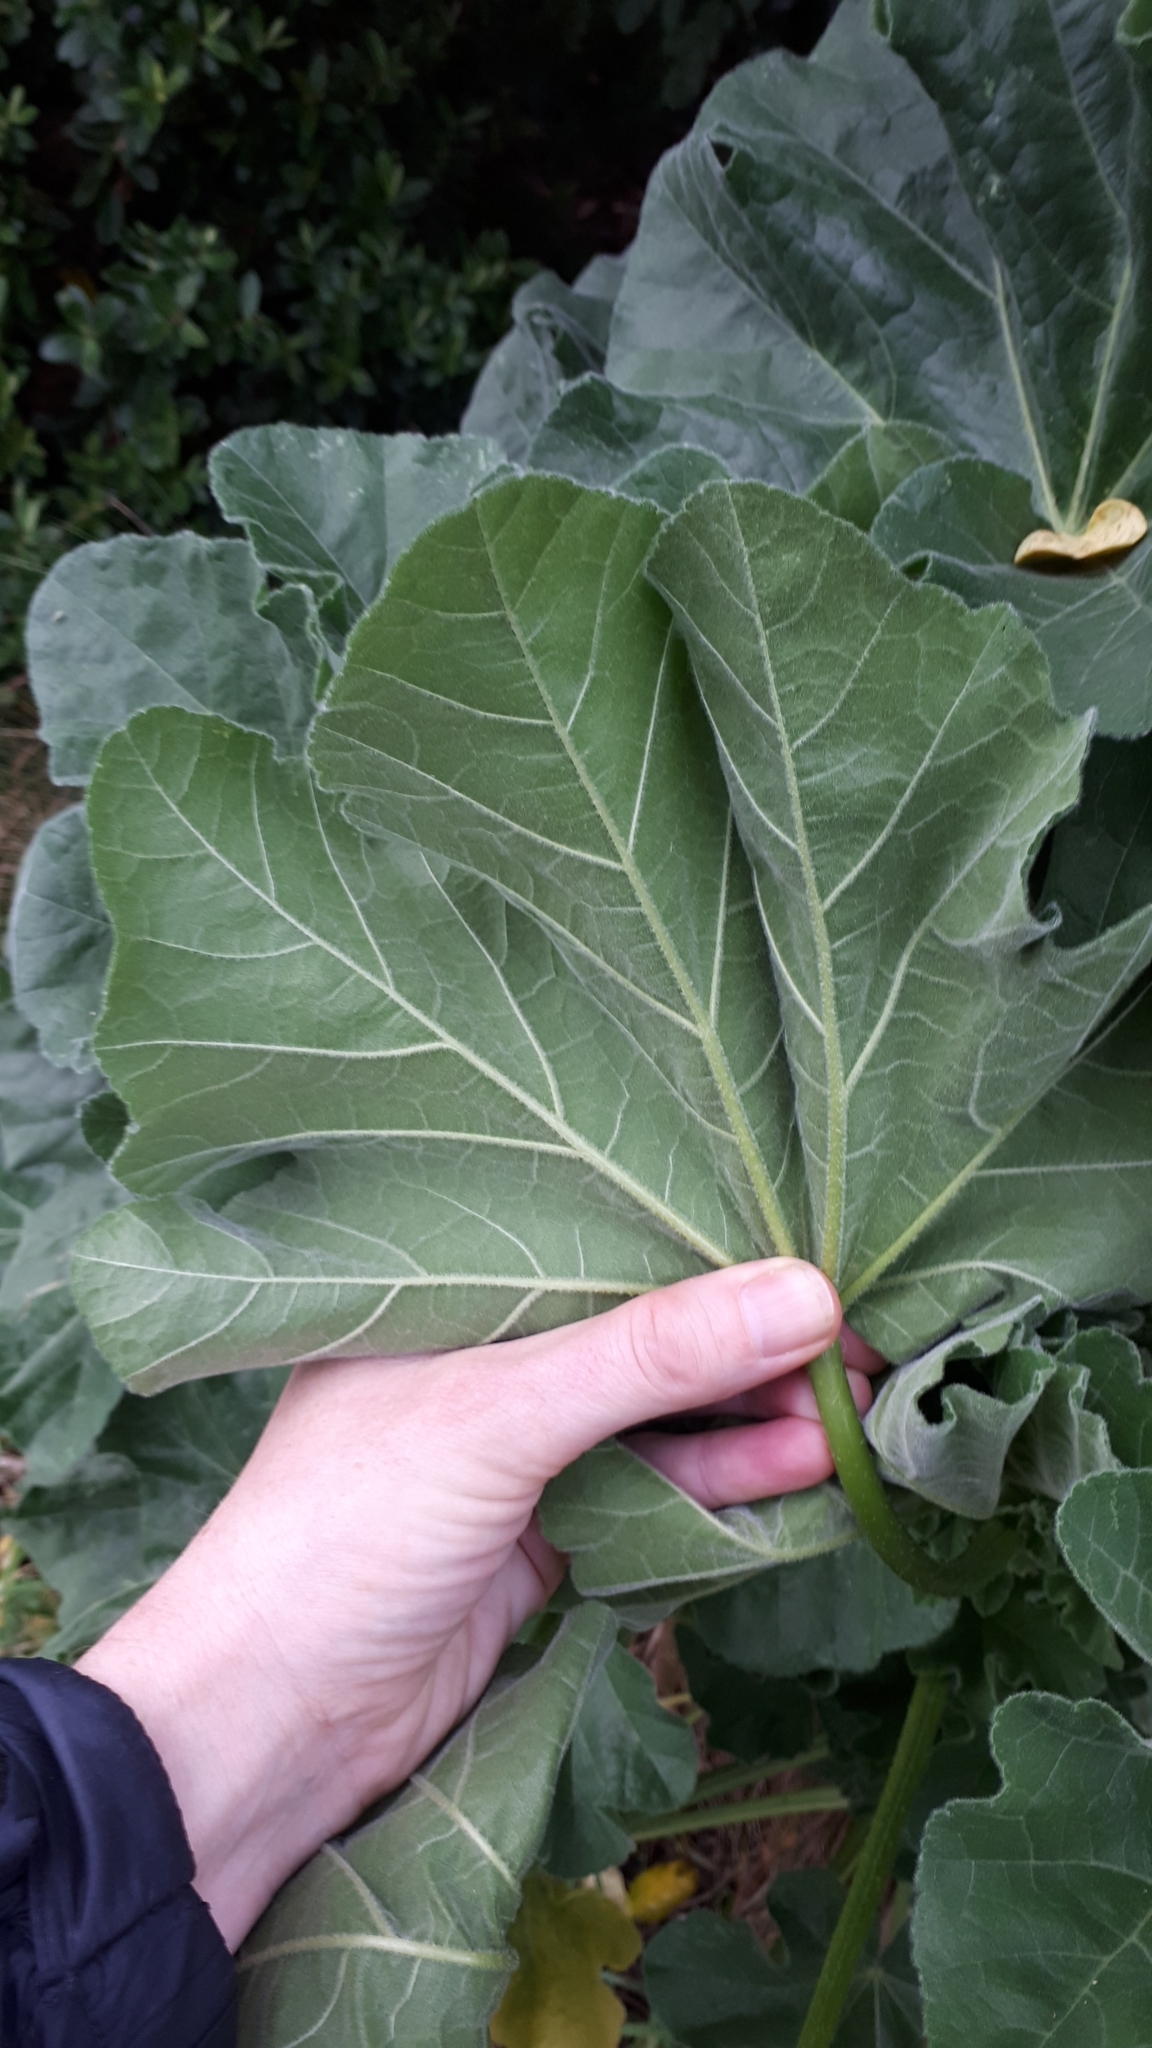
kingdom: Plantae
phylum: Tracheophyta
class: Magnoliopsida
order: Malvales
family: Malvaceae
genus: Malva
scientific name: Malva arborea
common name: Tree mallow
